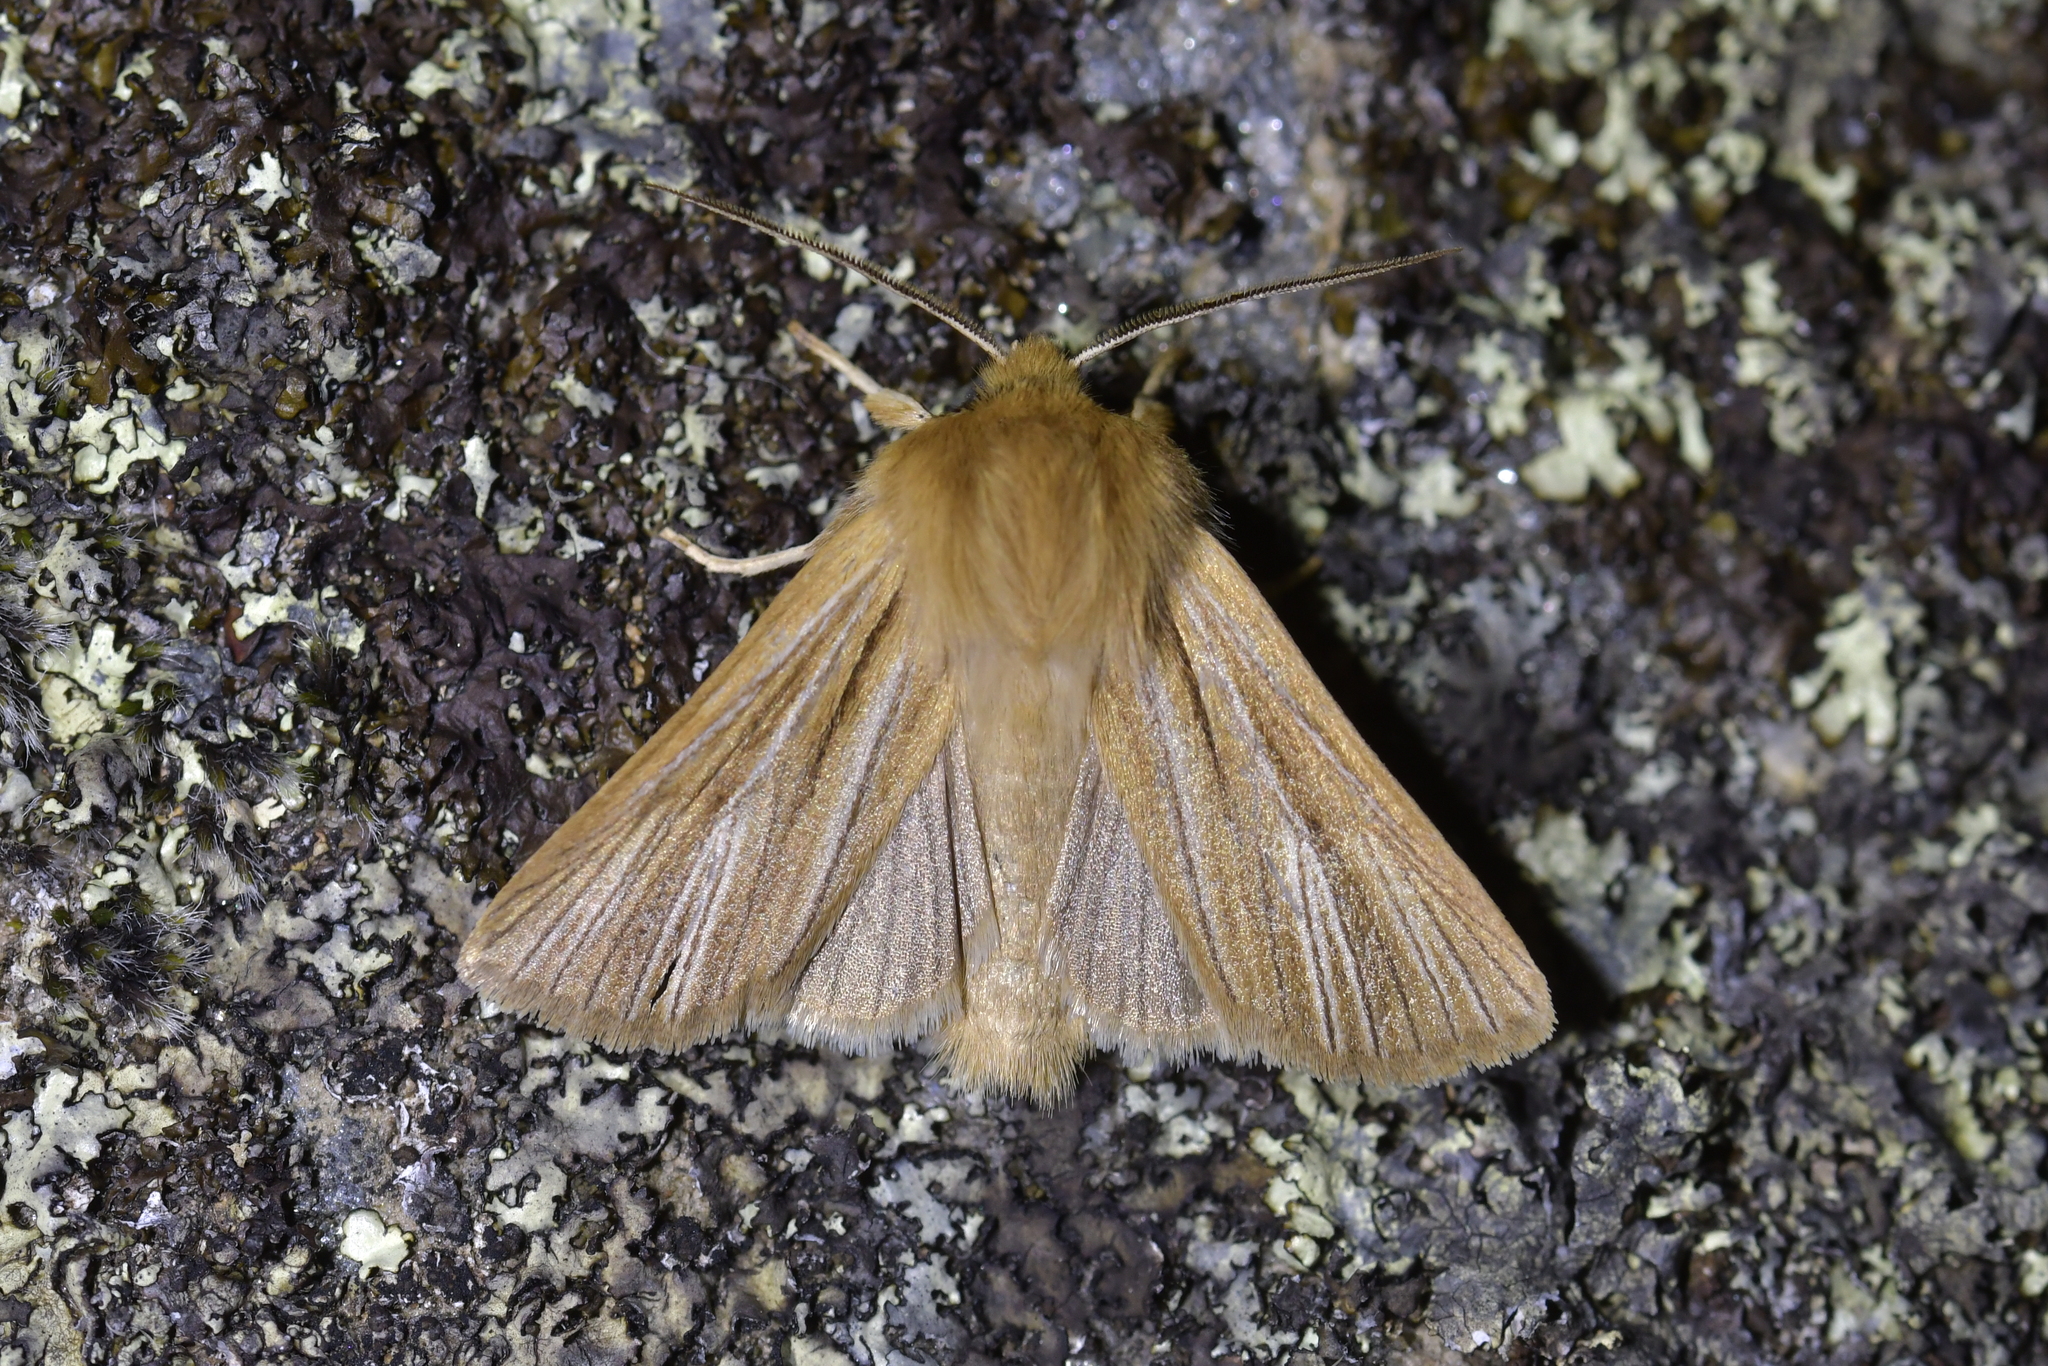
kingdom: Animalia
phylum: Arthropoda
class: Insecta
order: Lepidoptera
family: Noctuidae
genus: Ichneutica
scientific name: Ichneutica
